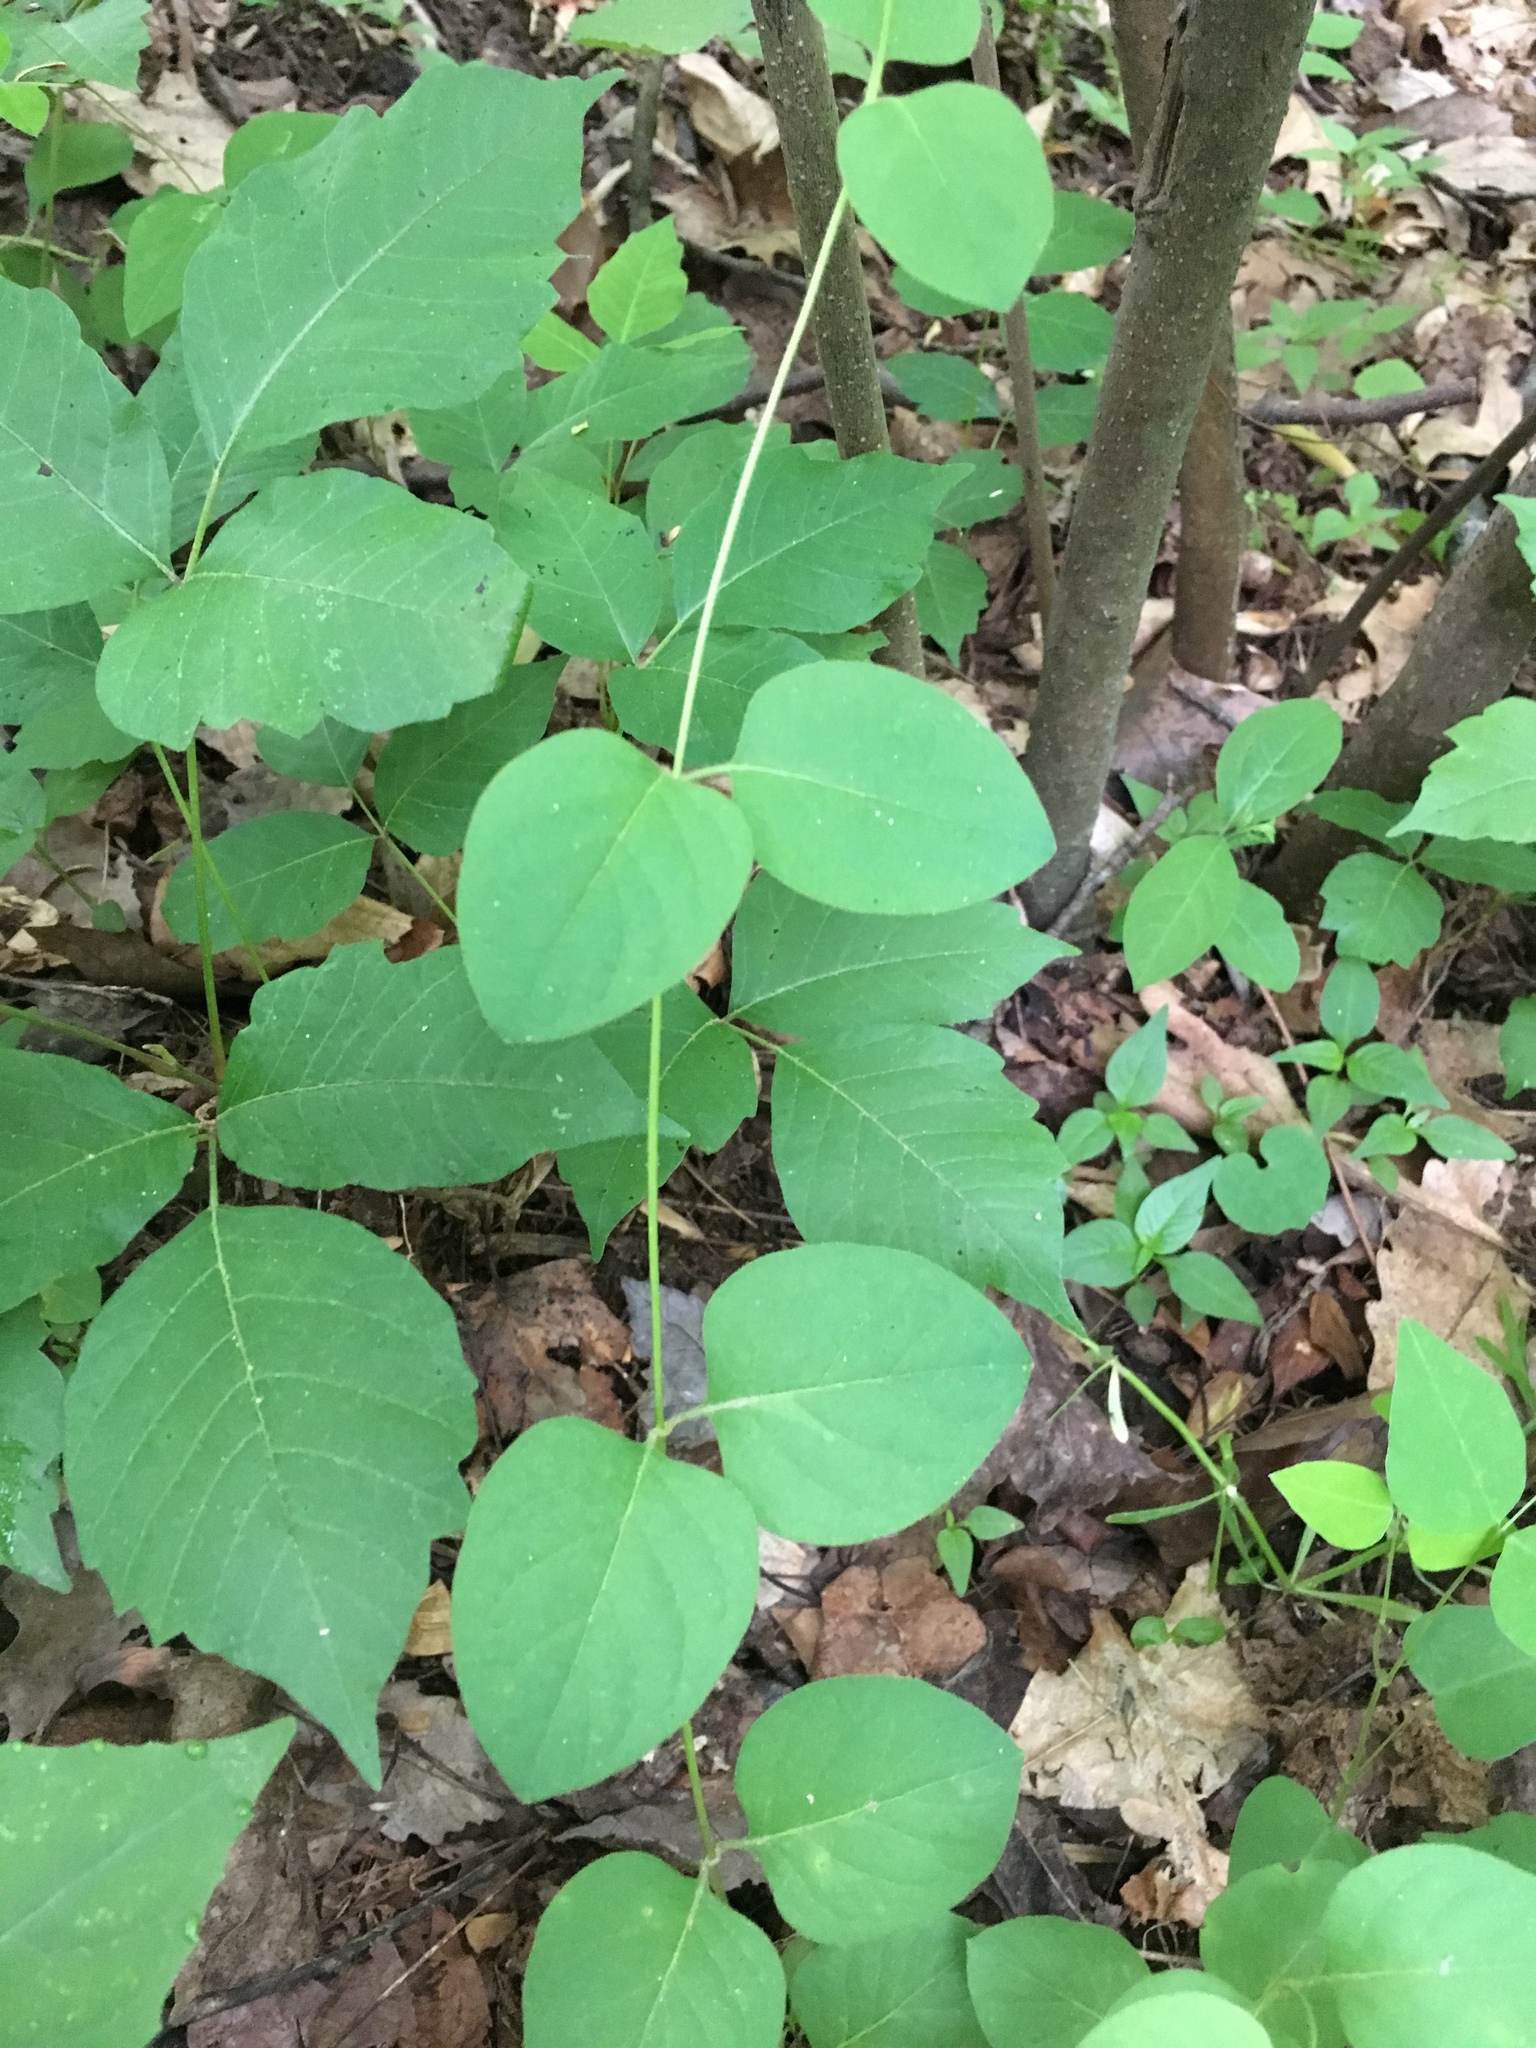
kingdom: Plantae
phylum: Tracheophyta
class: Magnoliopsida
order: Dipsacales
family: Caprifoliaceae
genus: Lonicera
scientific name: Lonicera japonica
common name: Japanese honeysuckle
